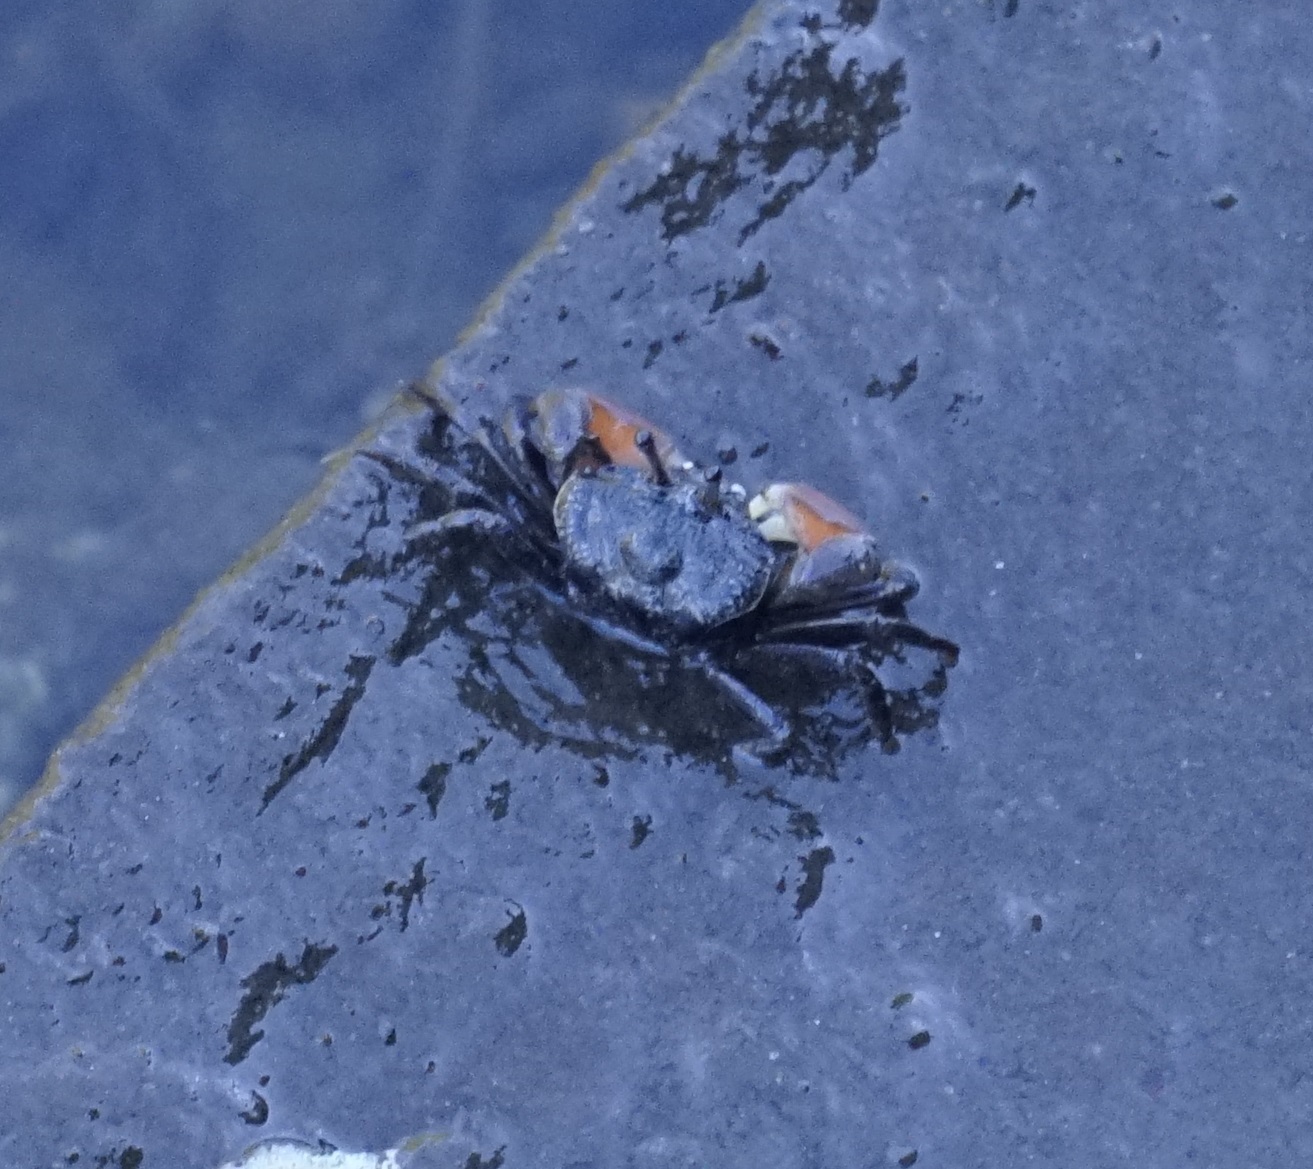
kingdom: Animalia
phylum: Arthropoda
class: Malacostraca
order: Decapoda
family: Heloeciidae
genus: Heloecius
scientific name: Heloecius cordiformis
